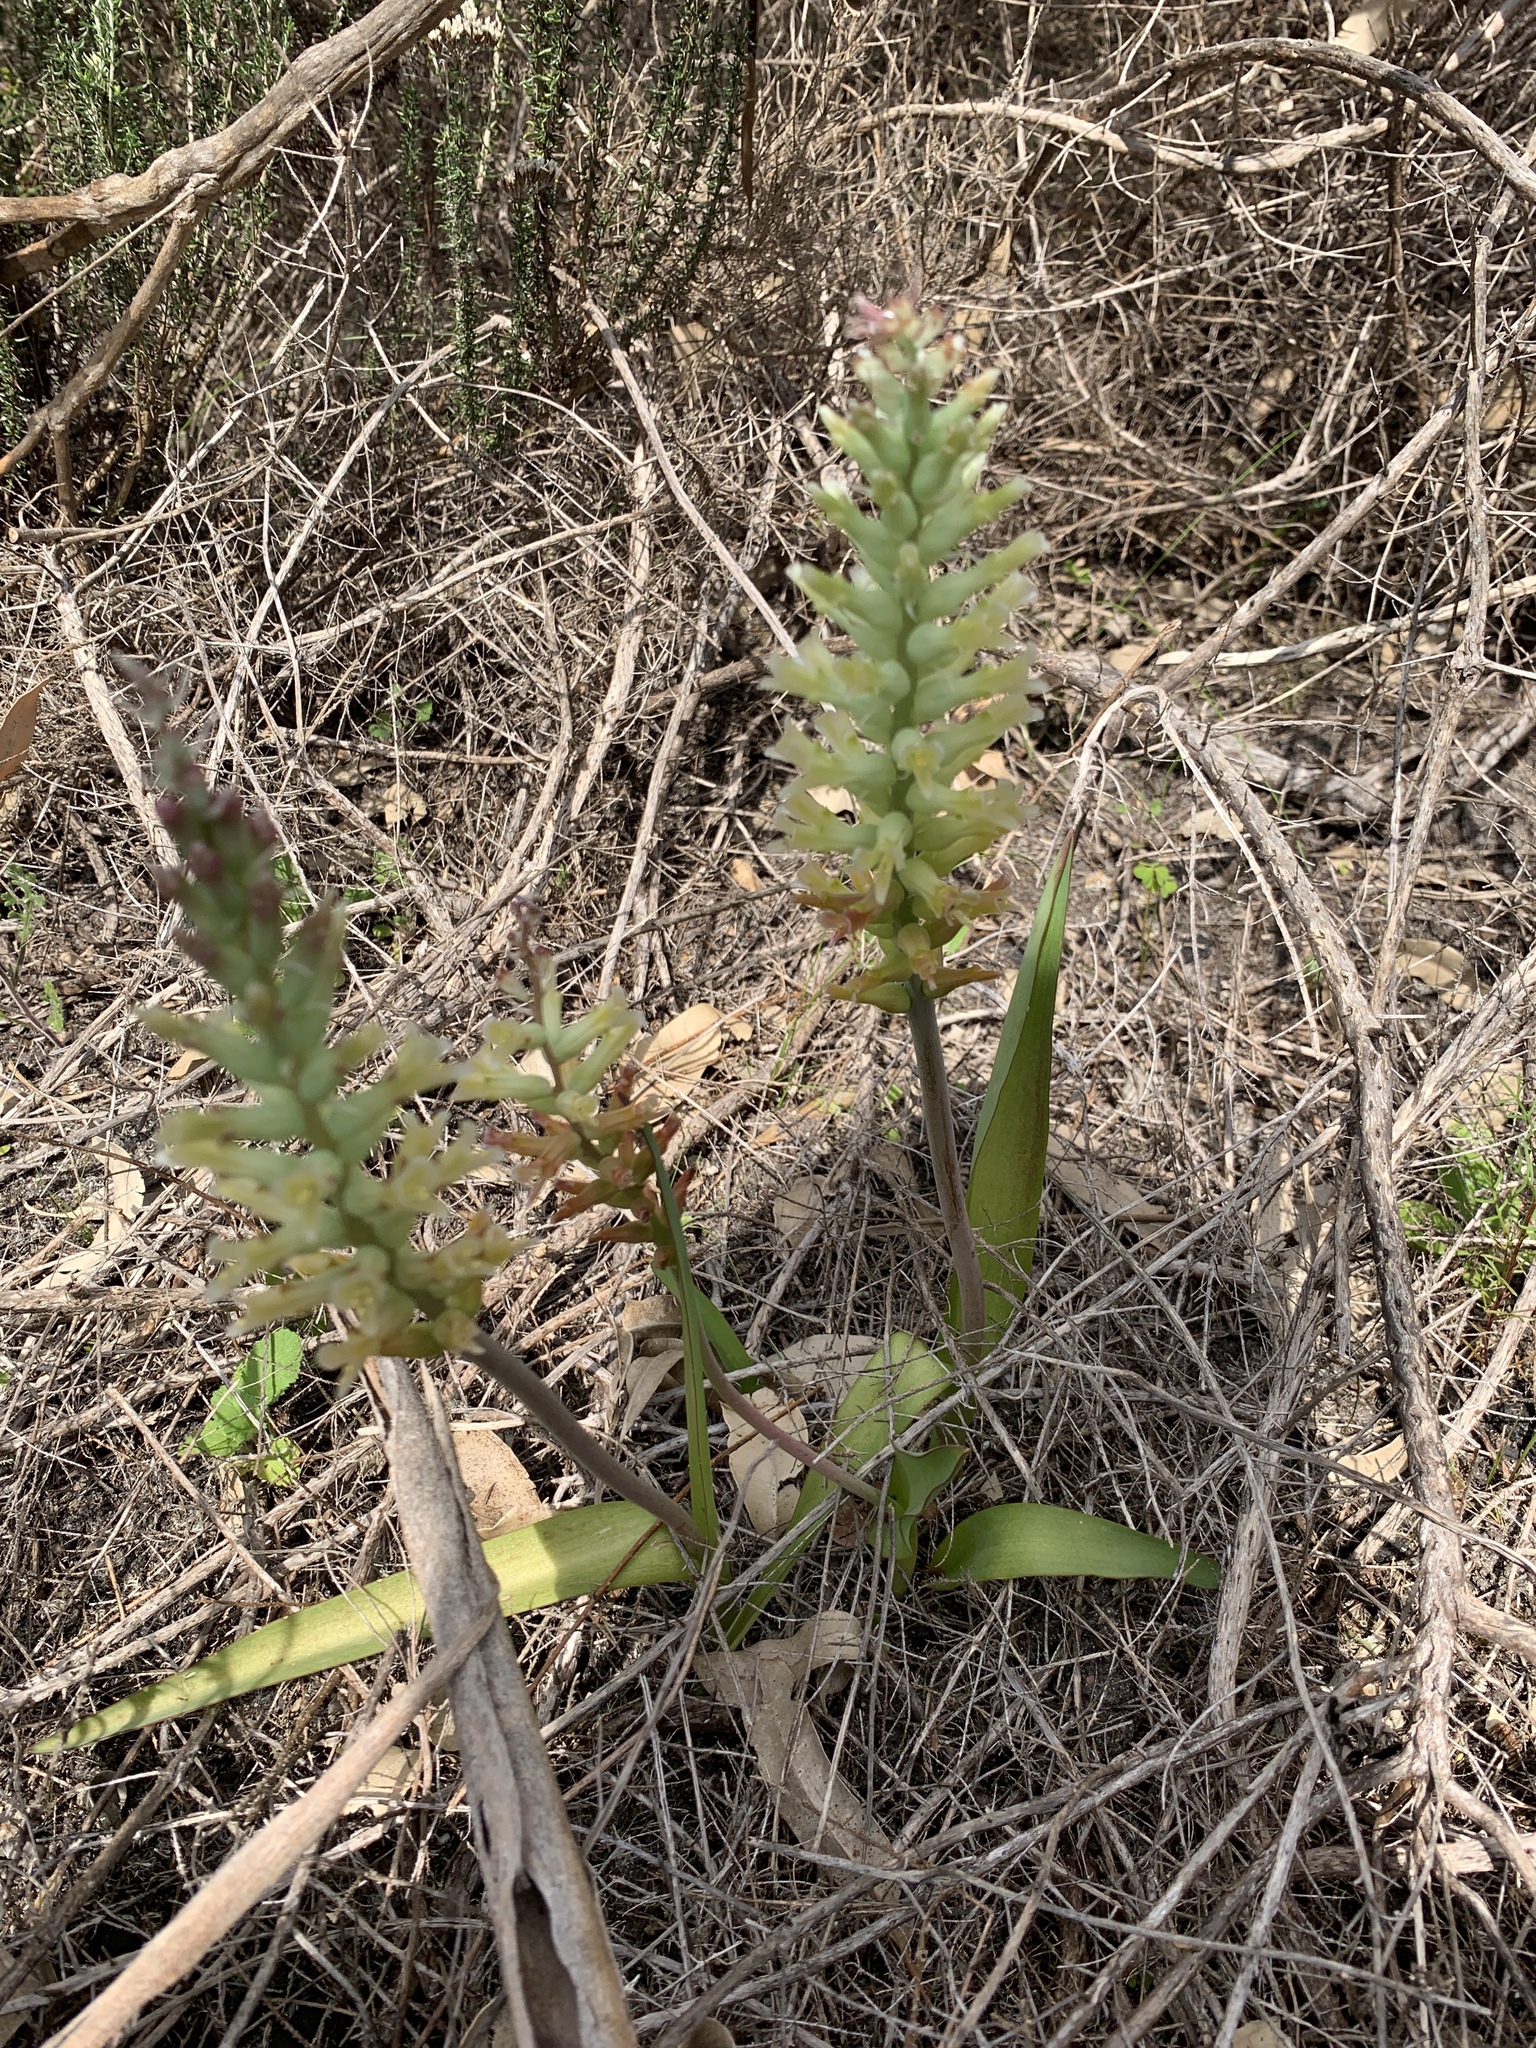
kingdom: Plantae
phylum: Tracheophyta
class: Liliopsida
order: Asparagales
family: Asparagaceae
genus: Lachenalia
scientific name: Lachenalia orchioides
